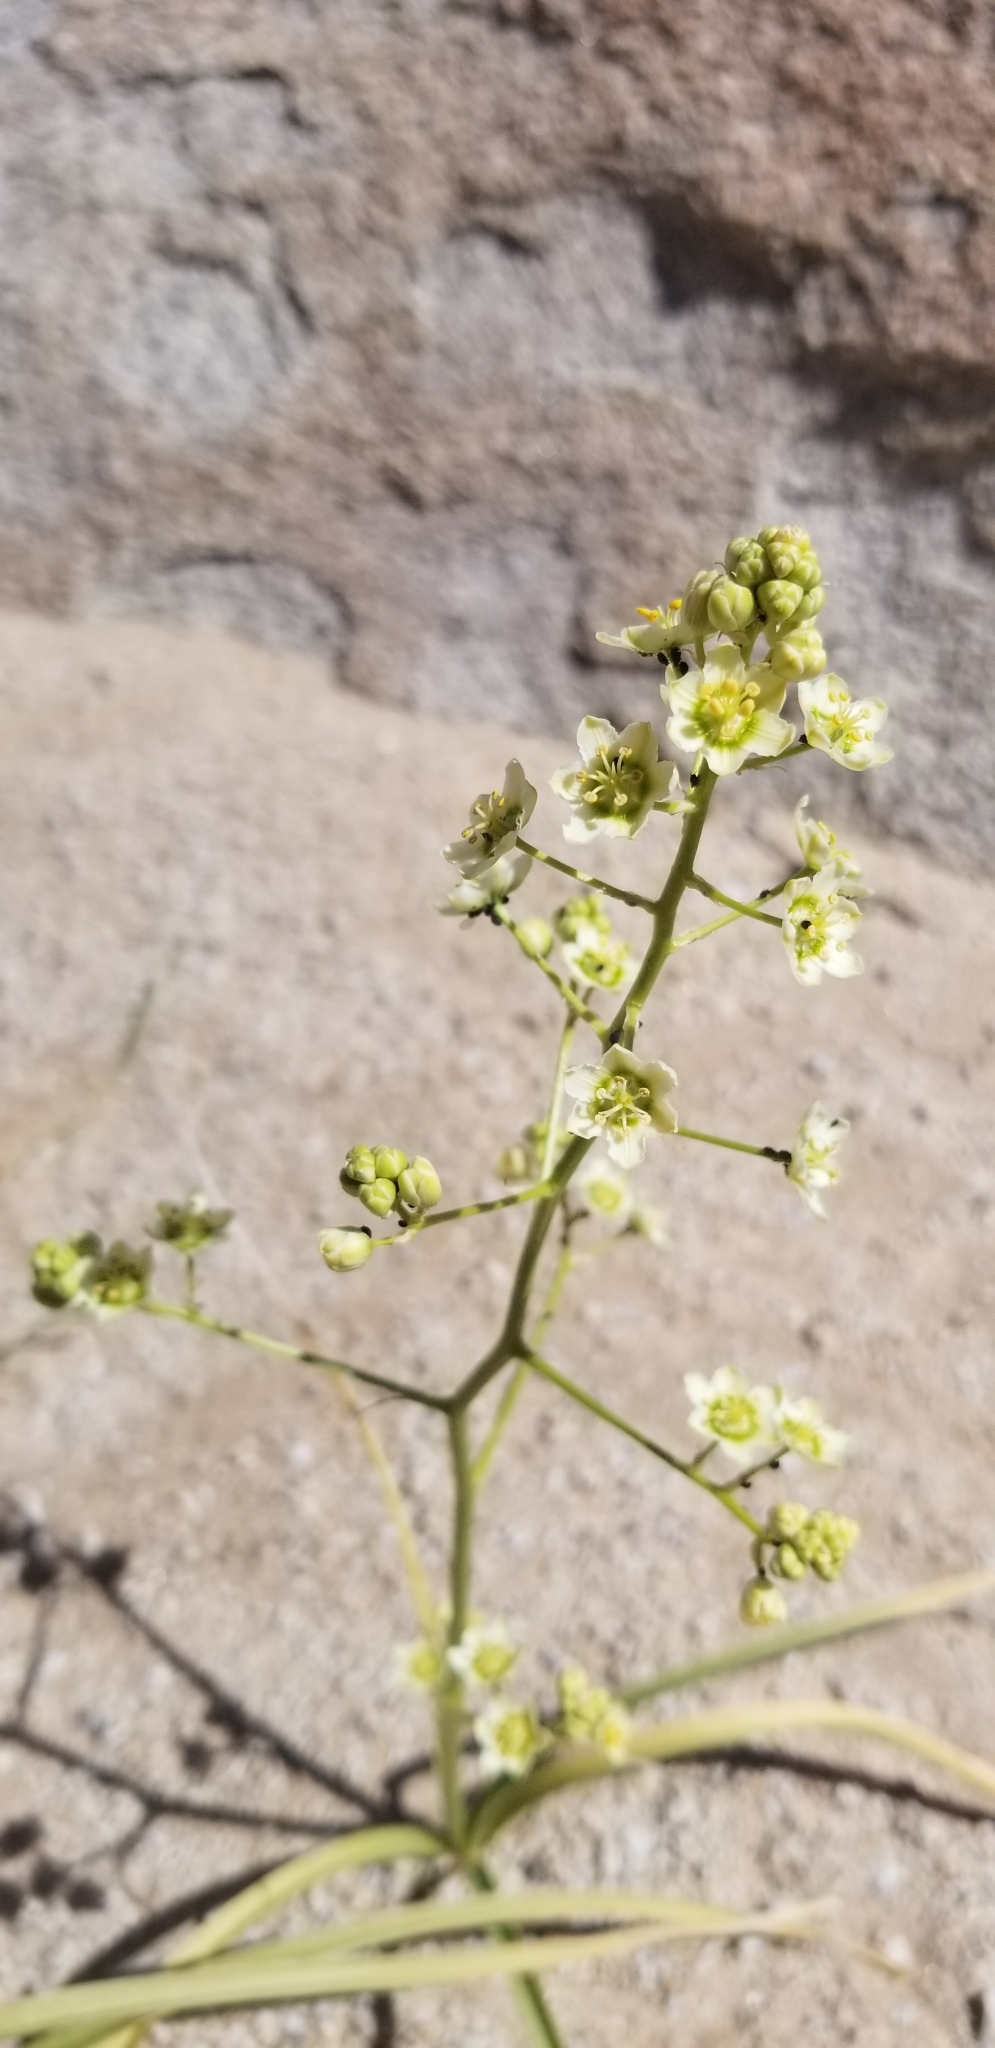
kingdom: Plantae
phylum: Tracheophyta
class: Liliopsida
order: Liliales
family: Melanthiaceae
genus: Toxicoscordion
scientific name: Toxicoscordion brevibracteatum
